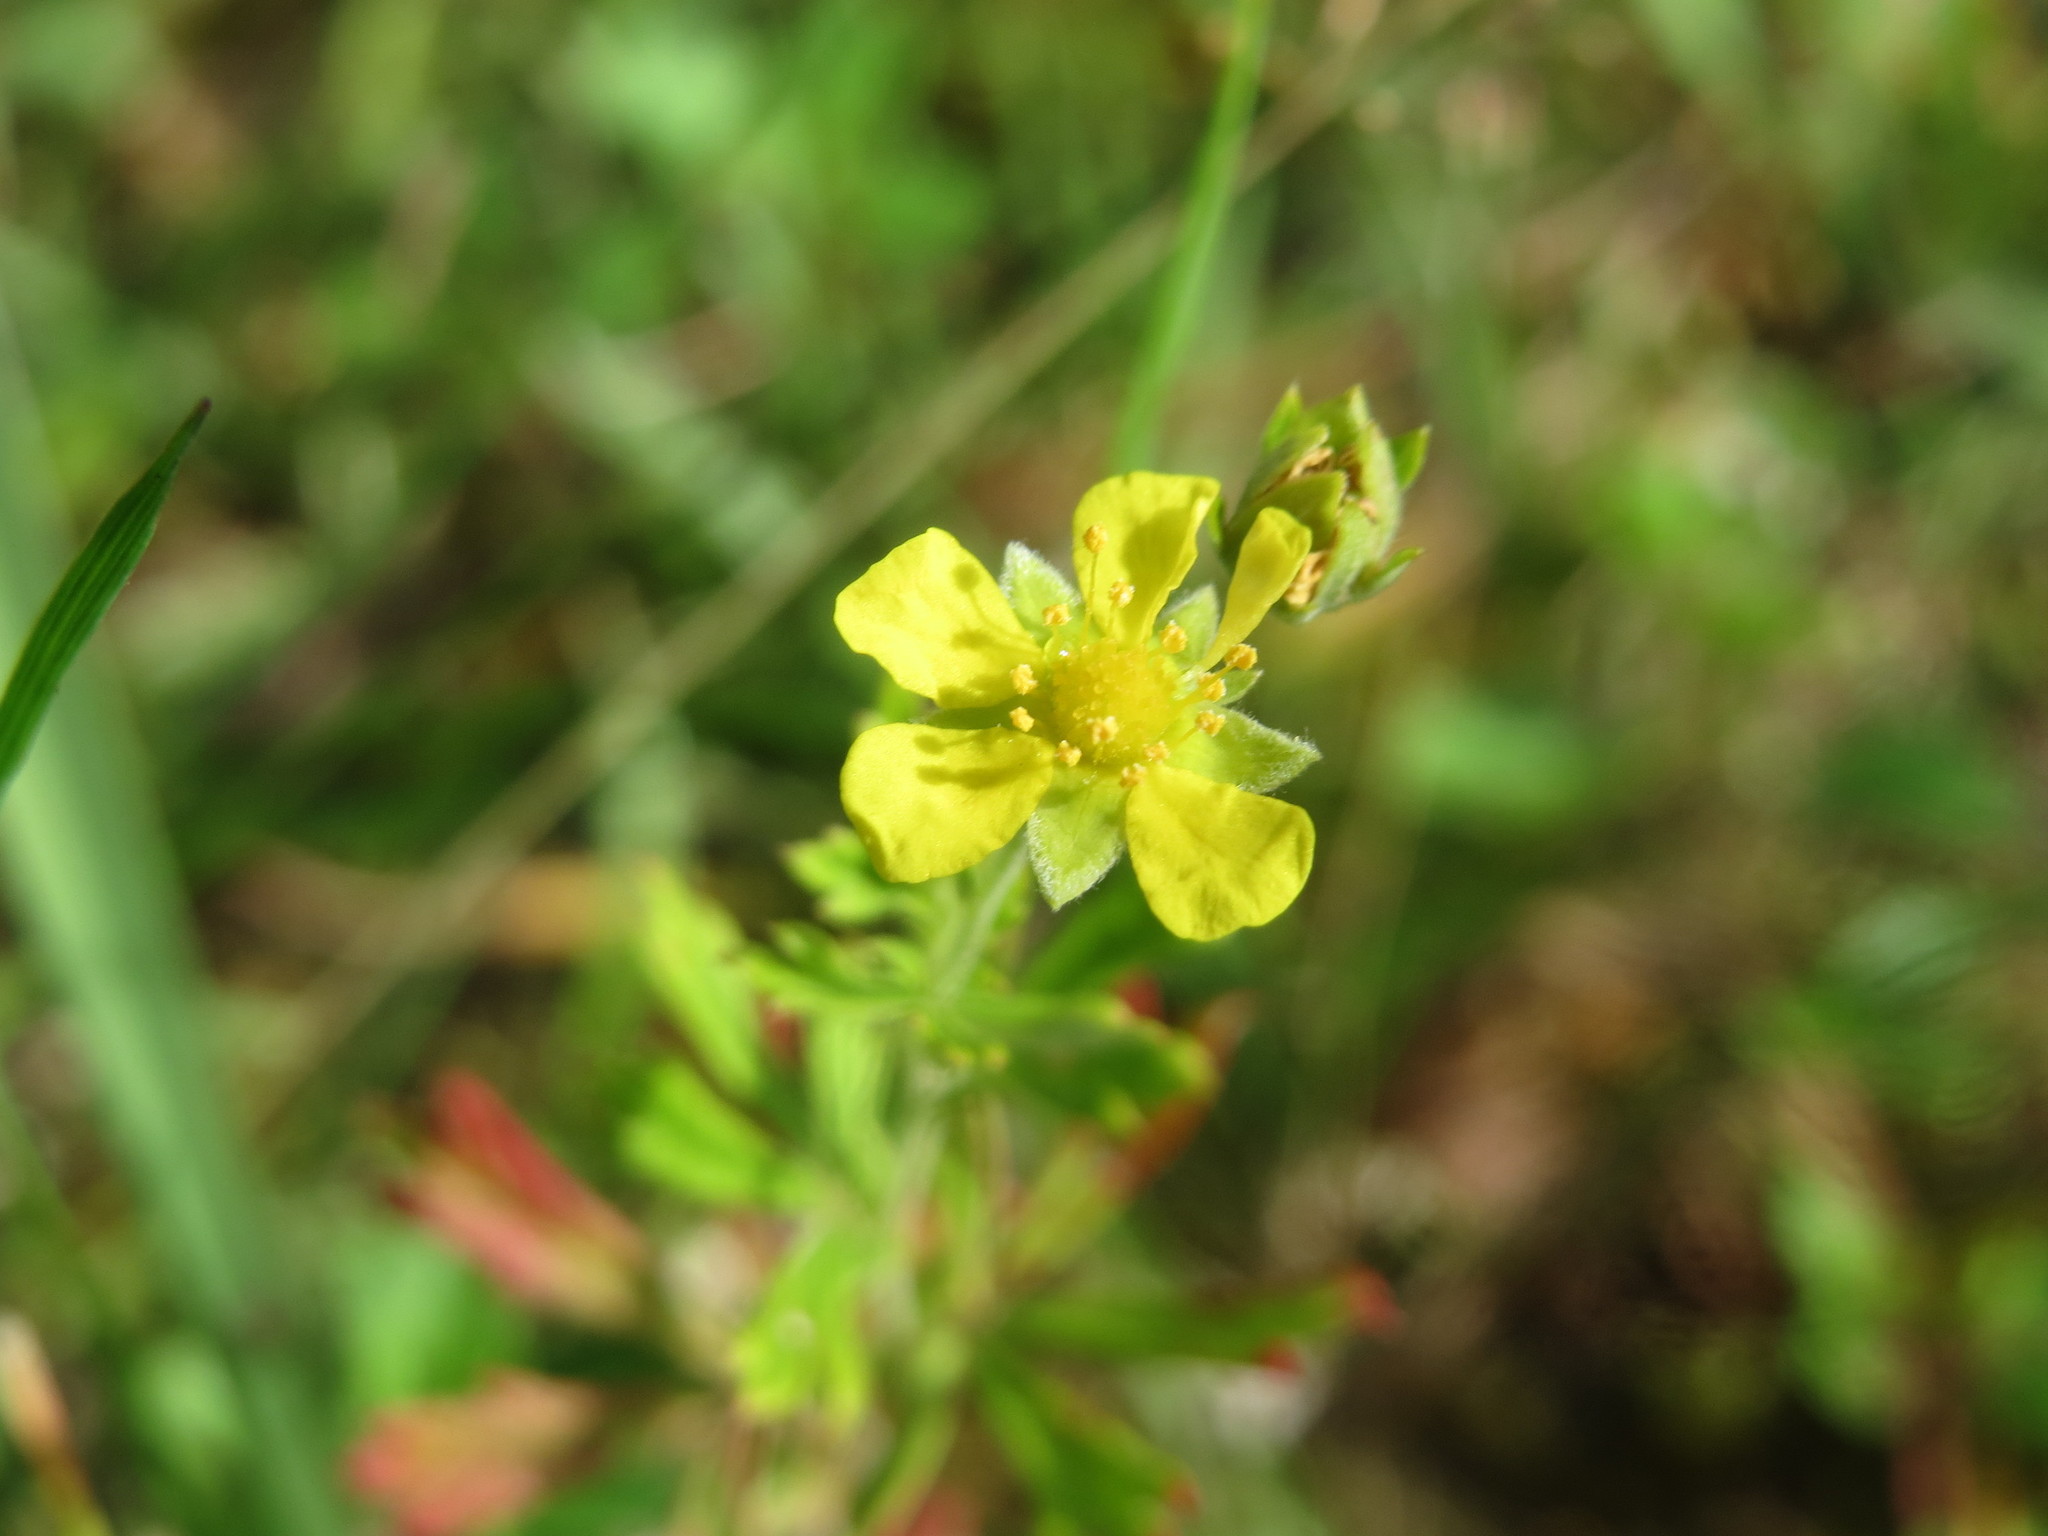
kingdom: Plantae
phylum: Tracheophyta
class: Magnoliopsida
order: Rosales
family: Rosaceae
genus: Potentilla
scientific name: Potentilla argentea
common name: Hoary cinquefoil
